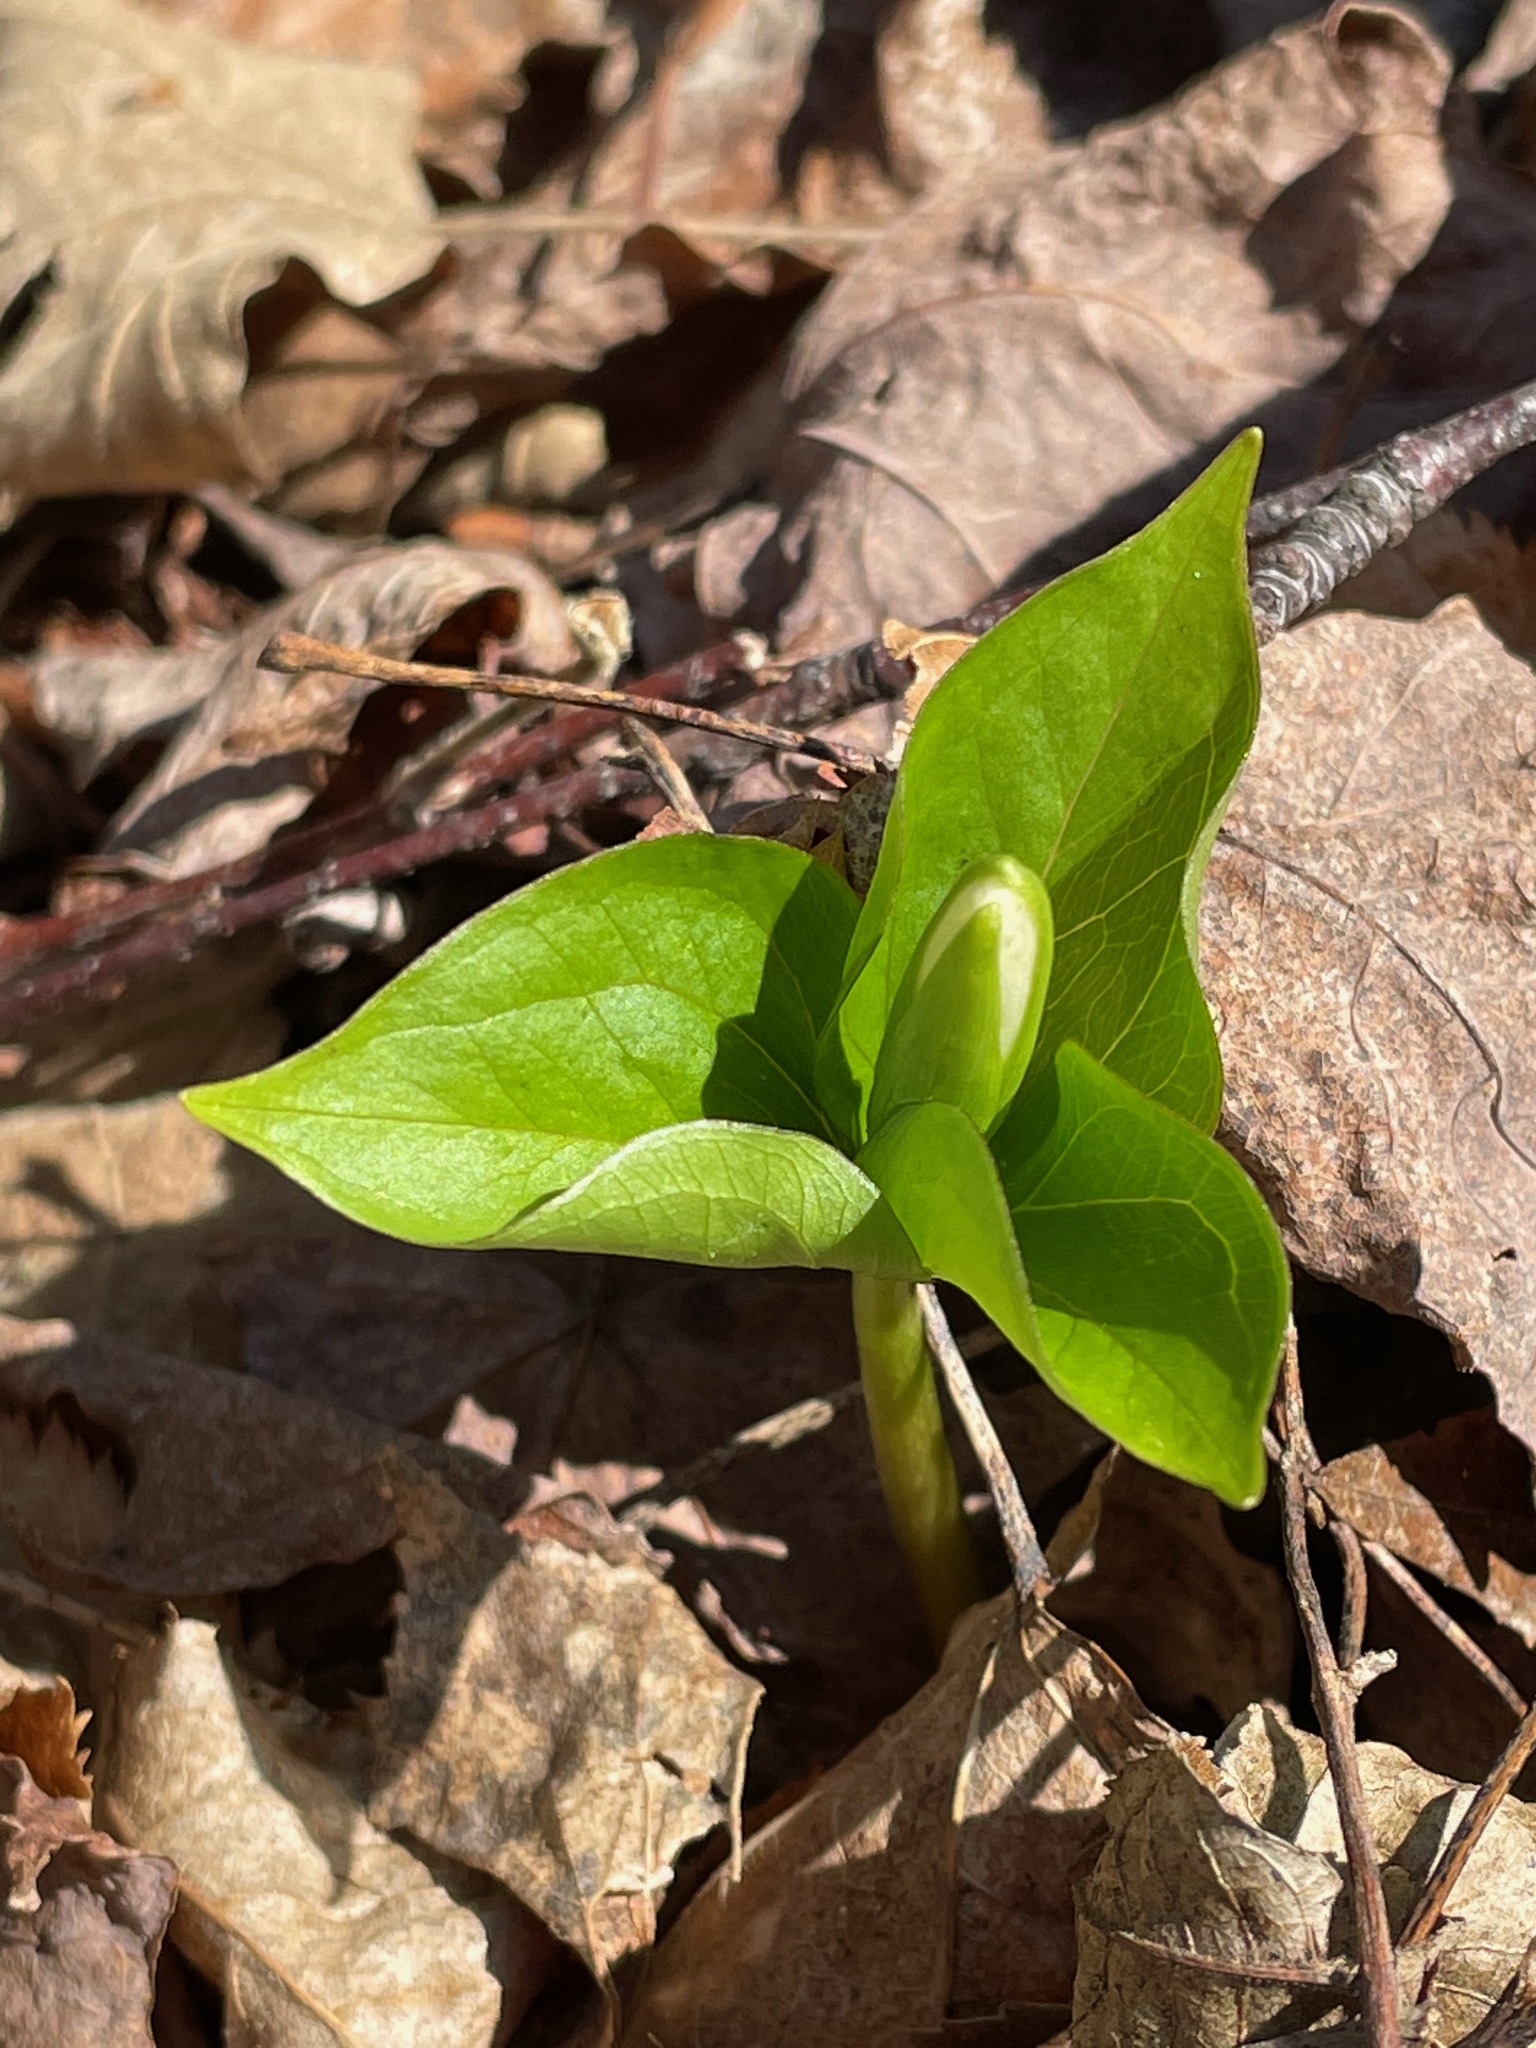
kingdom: Plantae
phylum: Tracheophyta
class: Liliopsida
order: Liliales
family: Melanthiaceae
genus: Trillium
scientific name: Trillium grandiflorum
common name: Great white trillium
